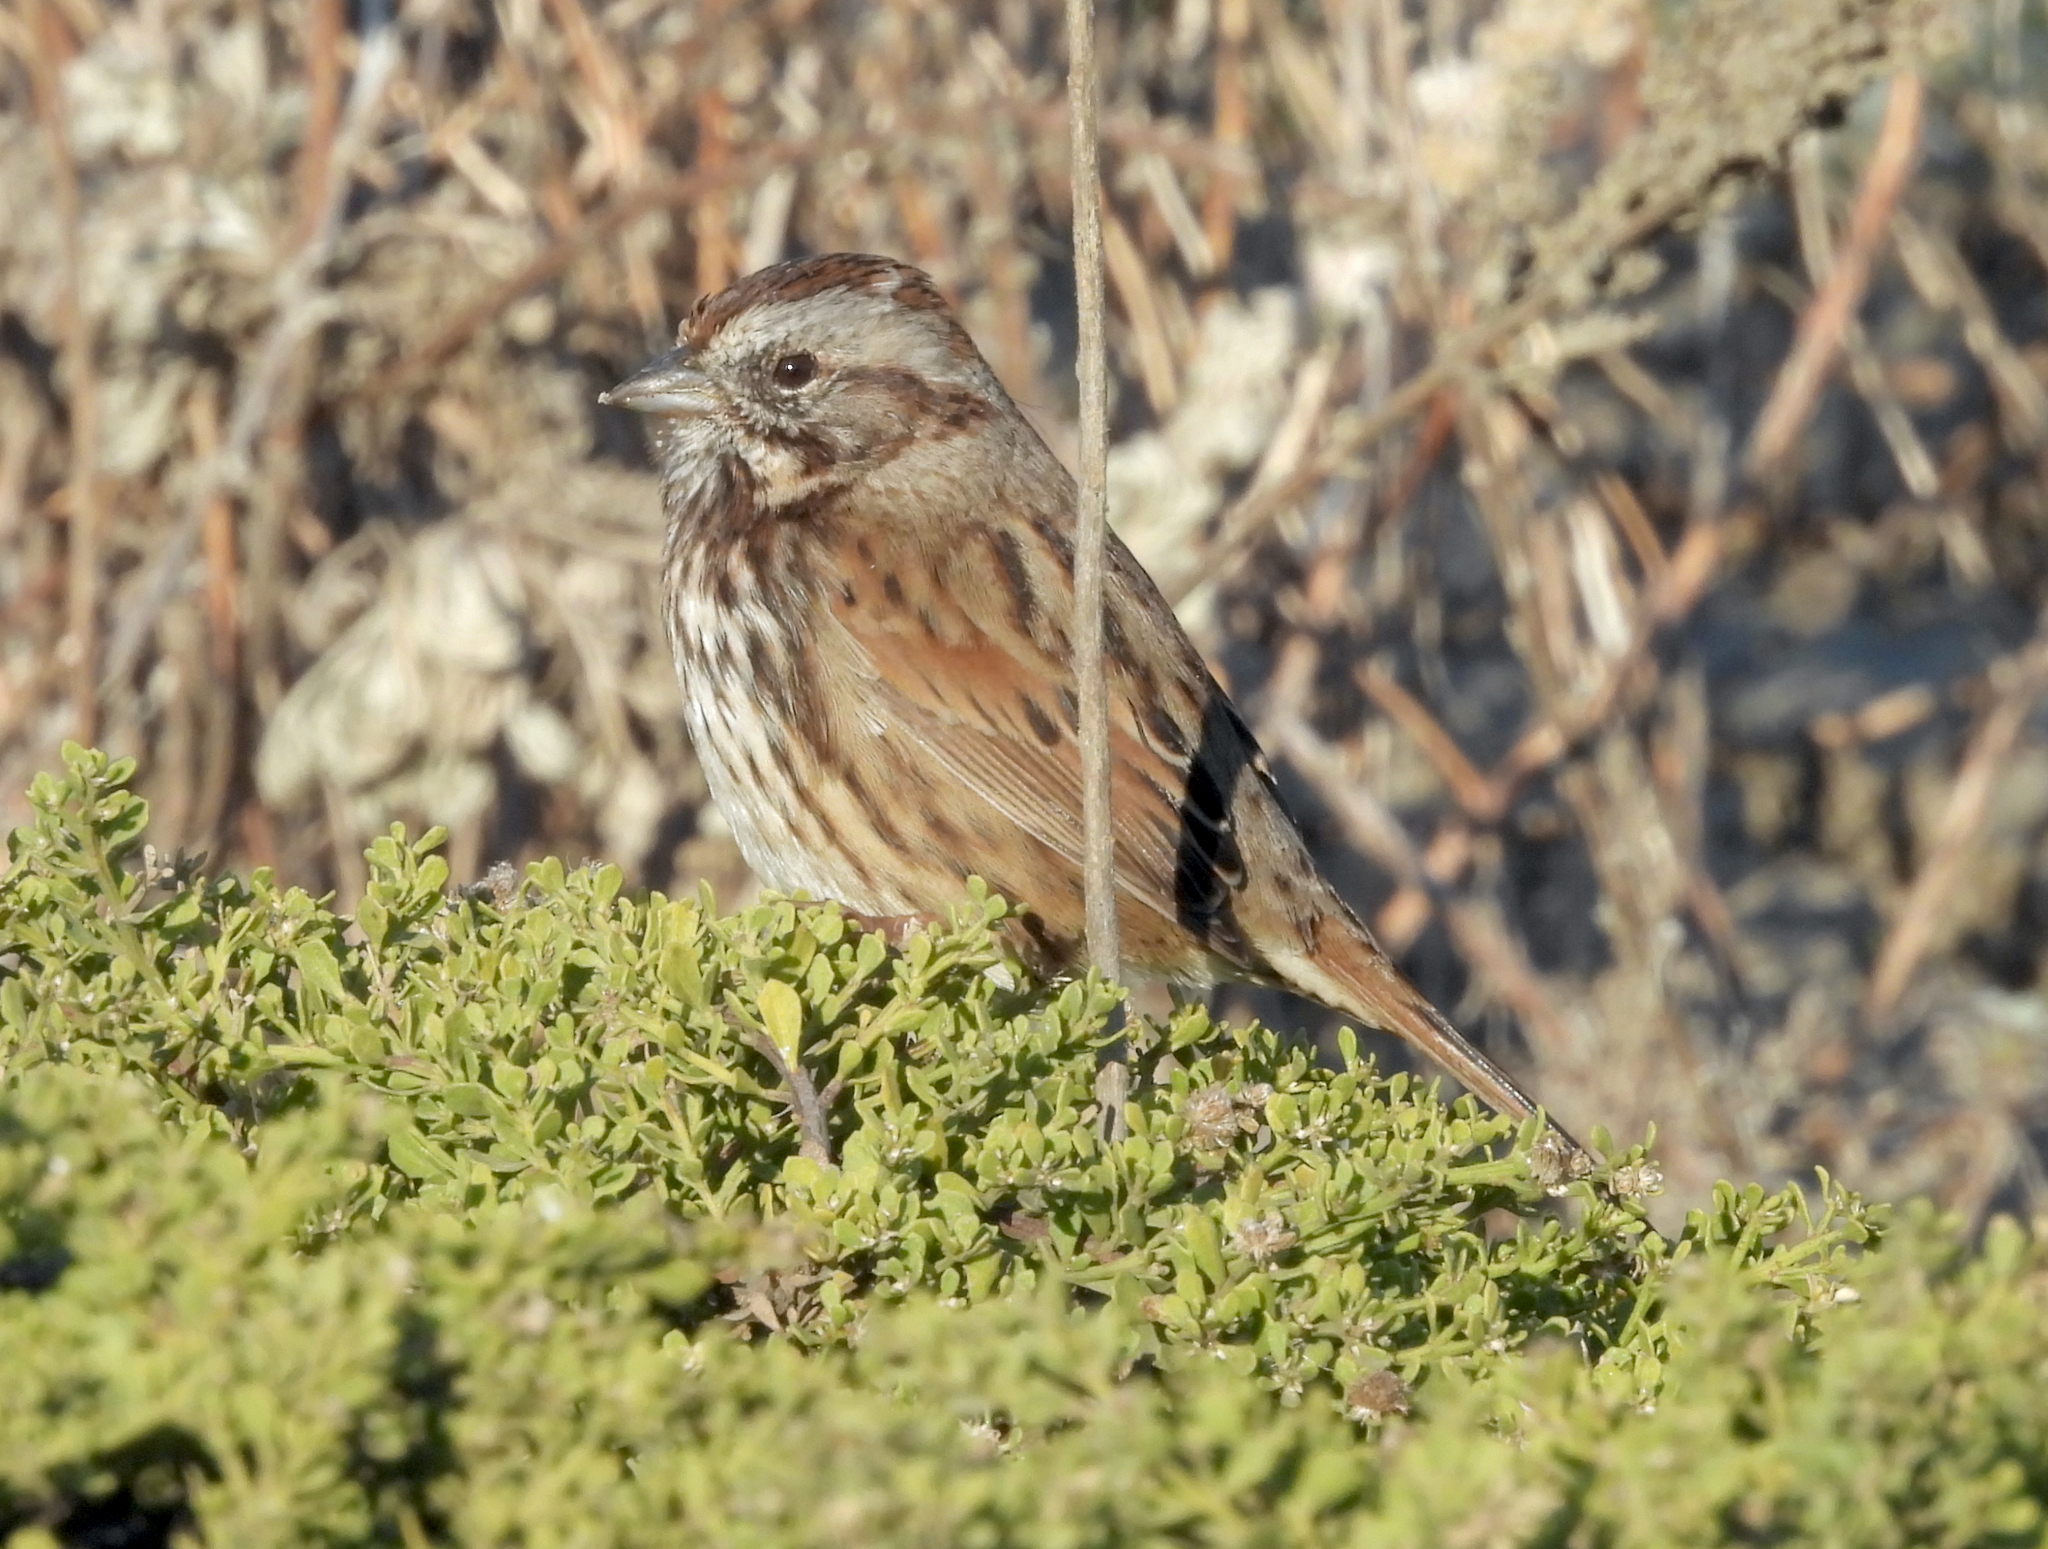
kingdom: Animalia
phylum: Chordata
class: Aves
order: Passeriformes
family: Passerellidae
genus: Melospiza
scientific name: Melospiza melodia
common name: Song sparrow
